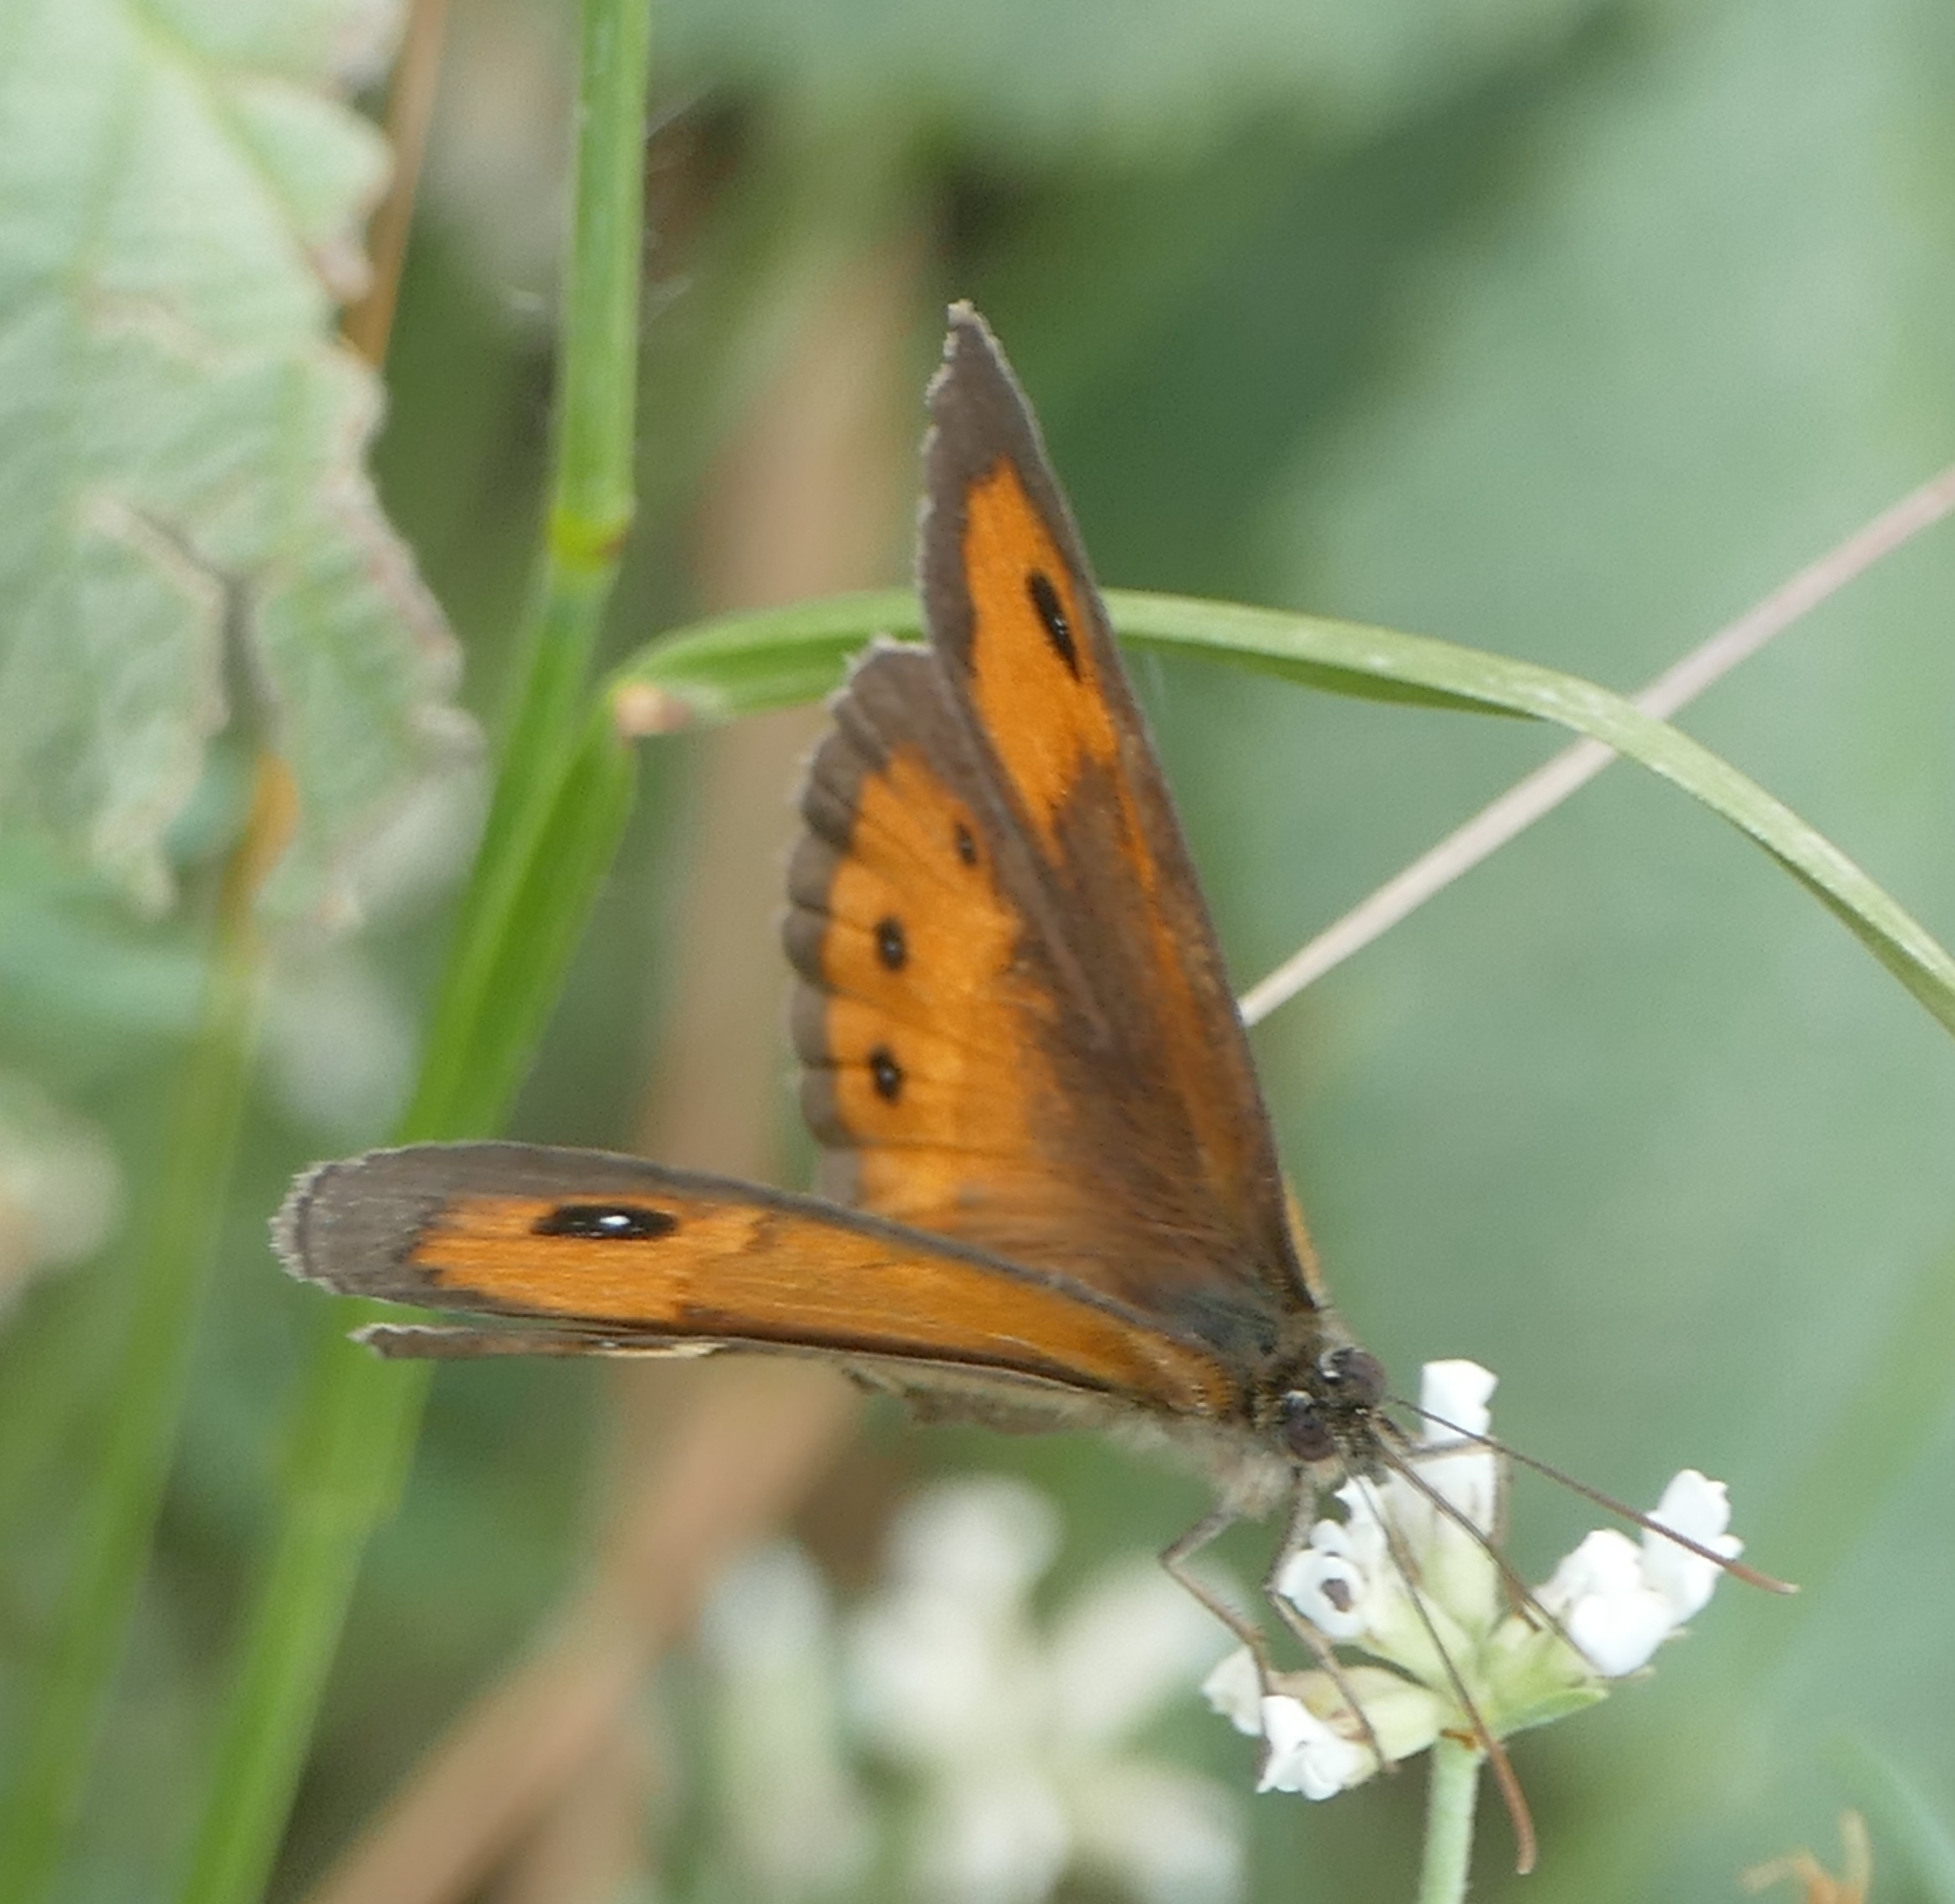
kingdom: Animalia
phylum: Arthropoda
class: Insecta
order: Lepidoptera
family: Nymphalidae
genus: Pyronia
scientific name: Pyronia bathseba
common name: Spanish gatekeeper
